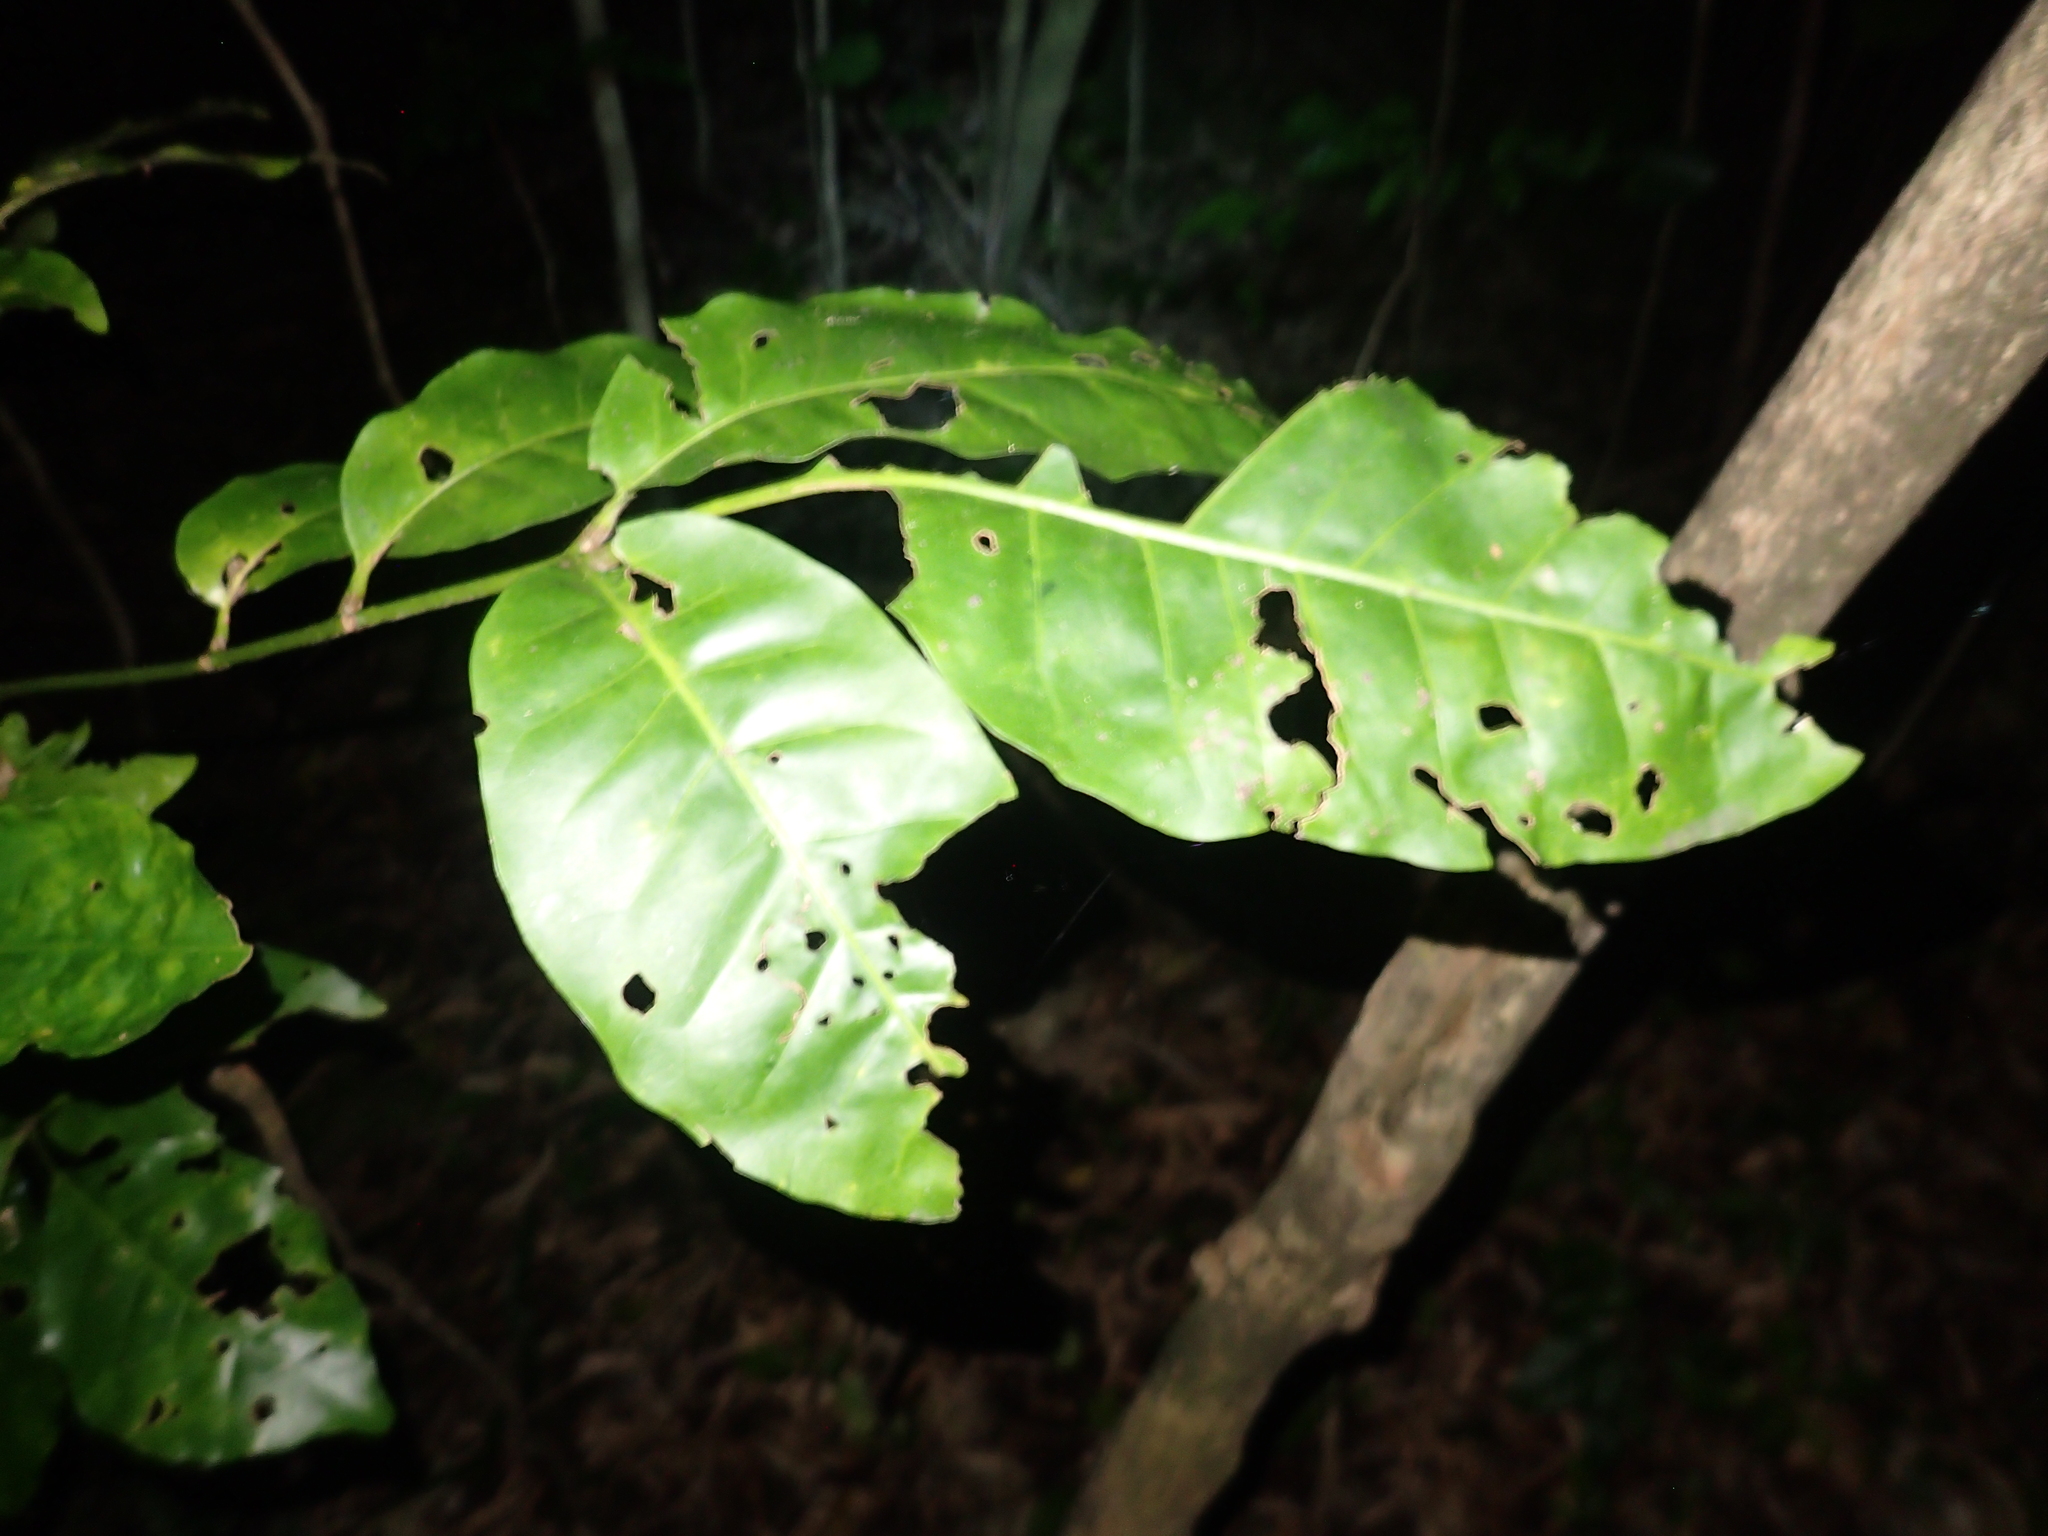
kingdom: Plantae
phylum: Tracheophyta
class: Magnoliopsida
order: Sapindales
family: Meliaceae
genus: Didymocheton
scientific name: Didymocheton spectabilis
